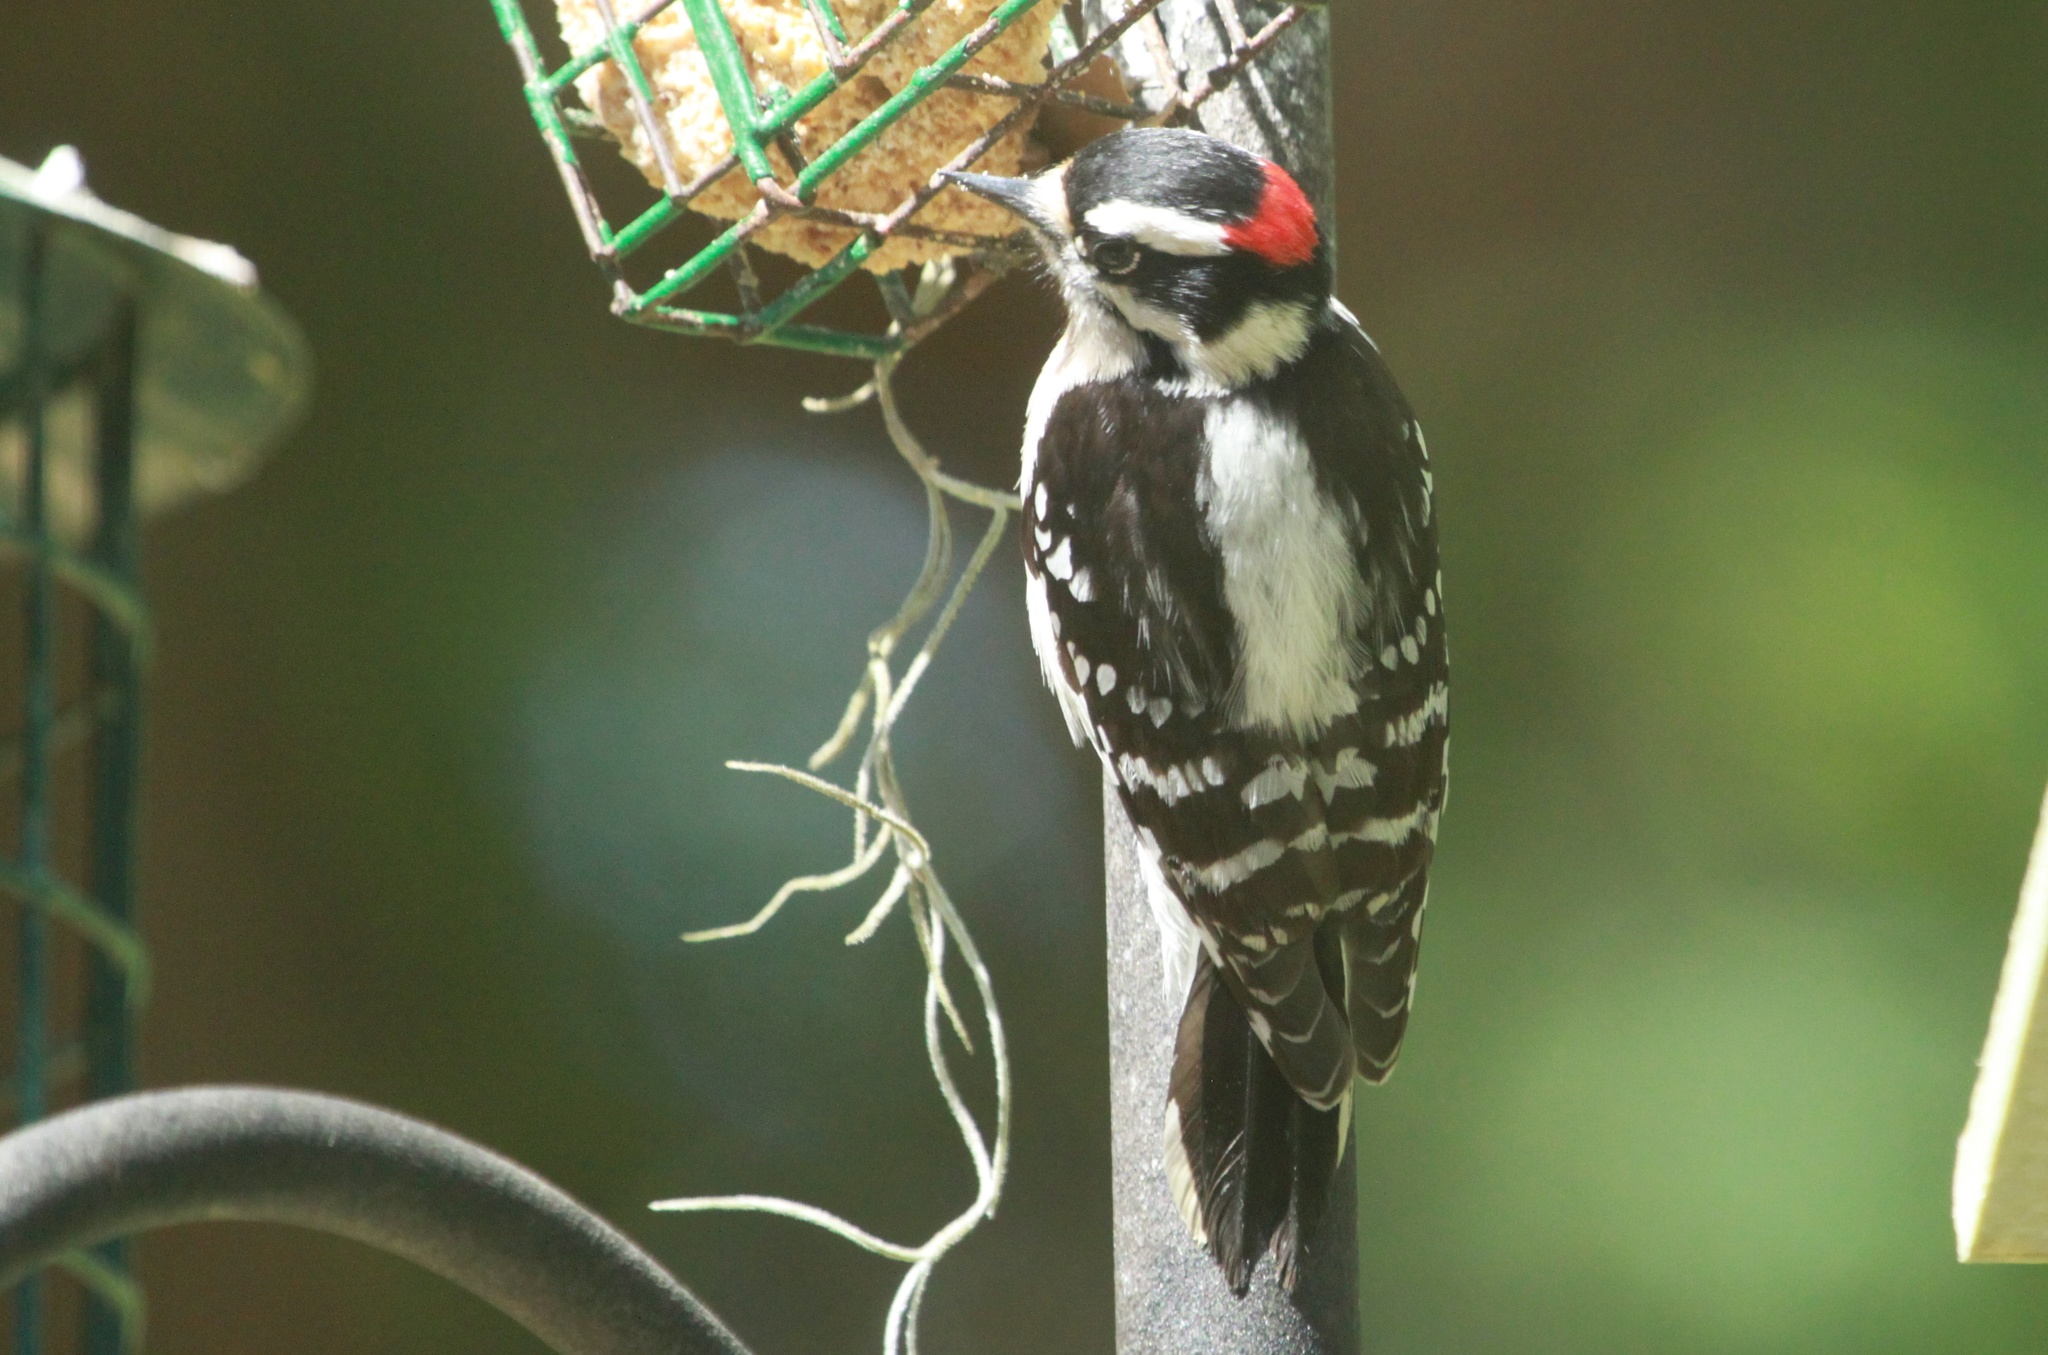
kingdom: Animalia
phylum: Chordata
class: Aves
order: Piciformes
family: Picidae
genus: Dryobates
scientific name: Dryobates pubescens
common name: Downy woodpecker
